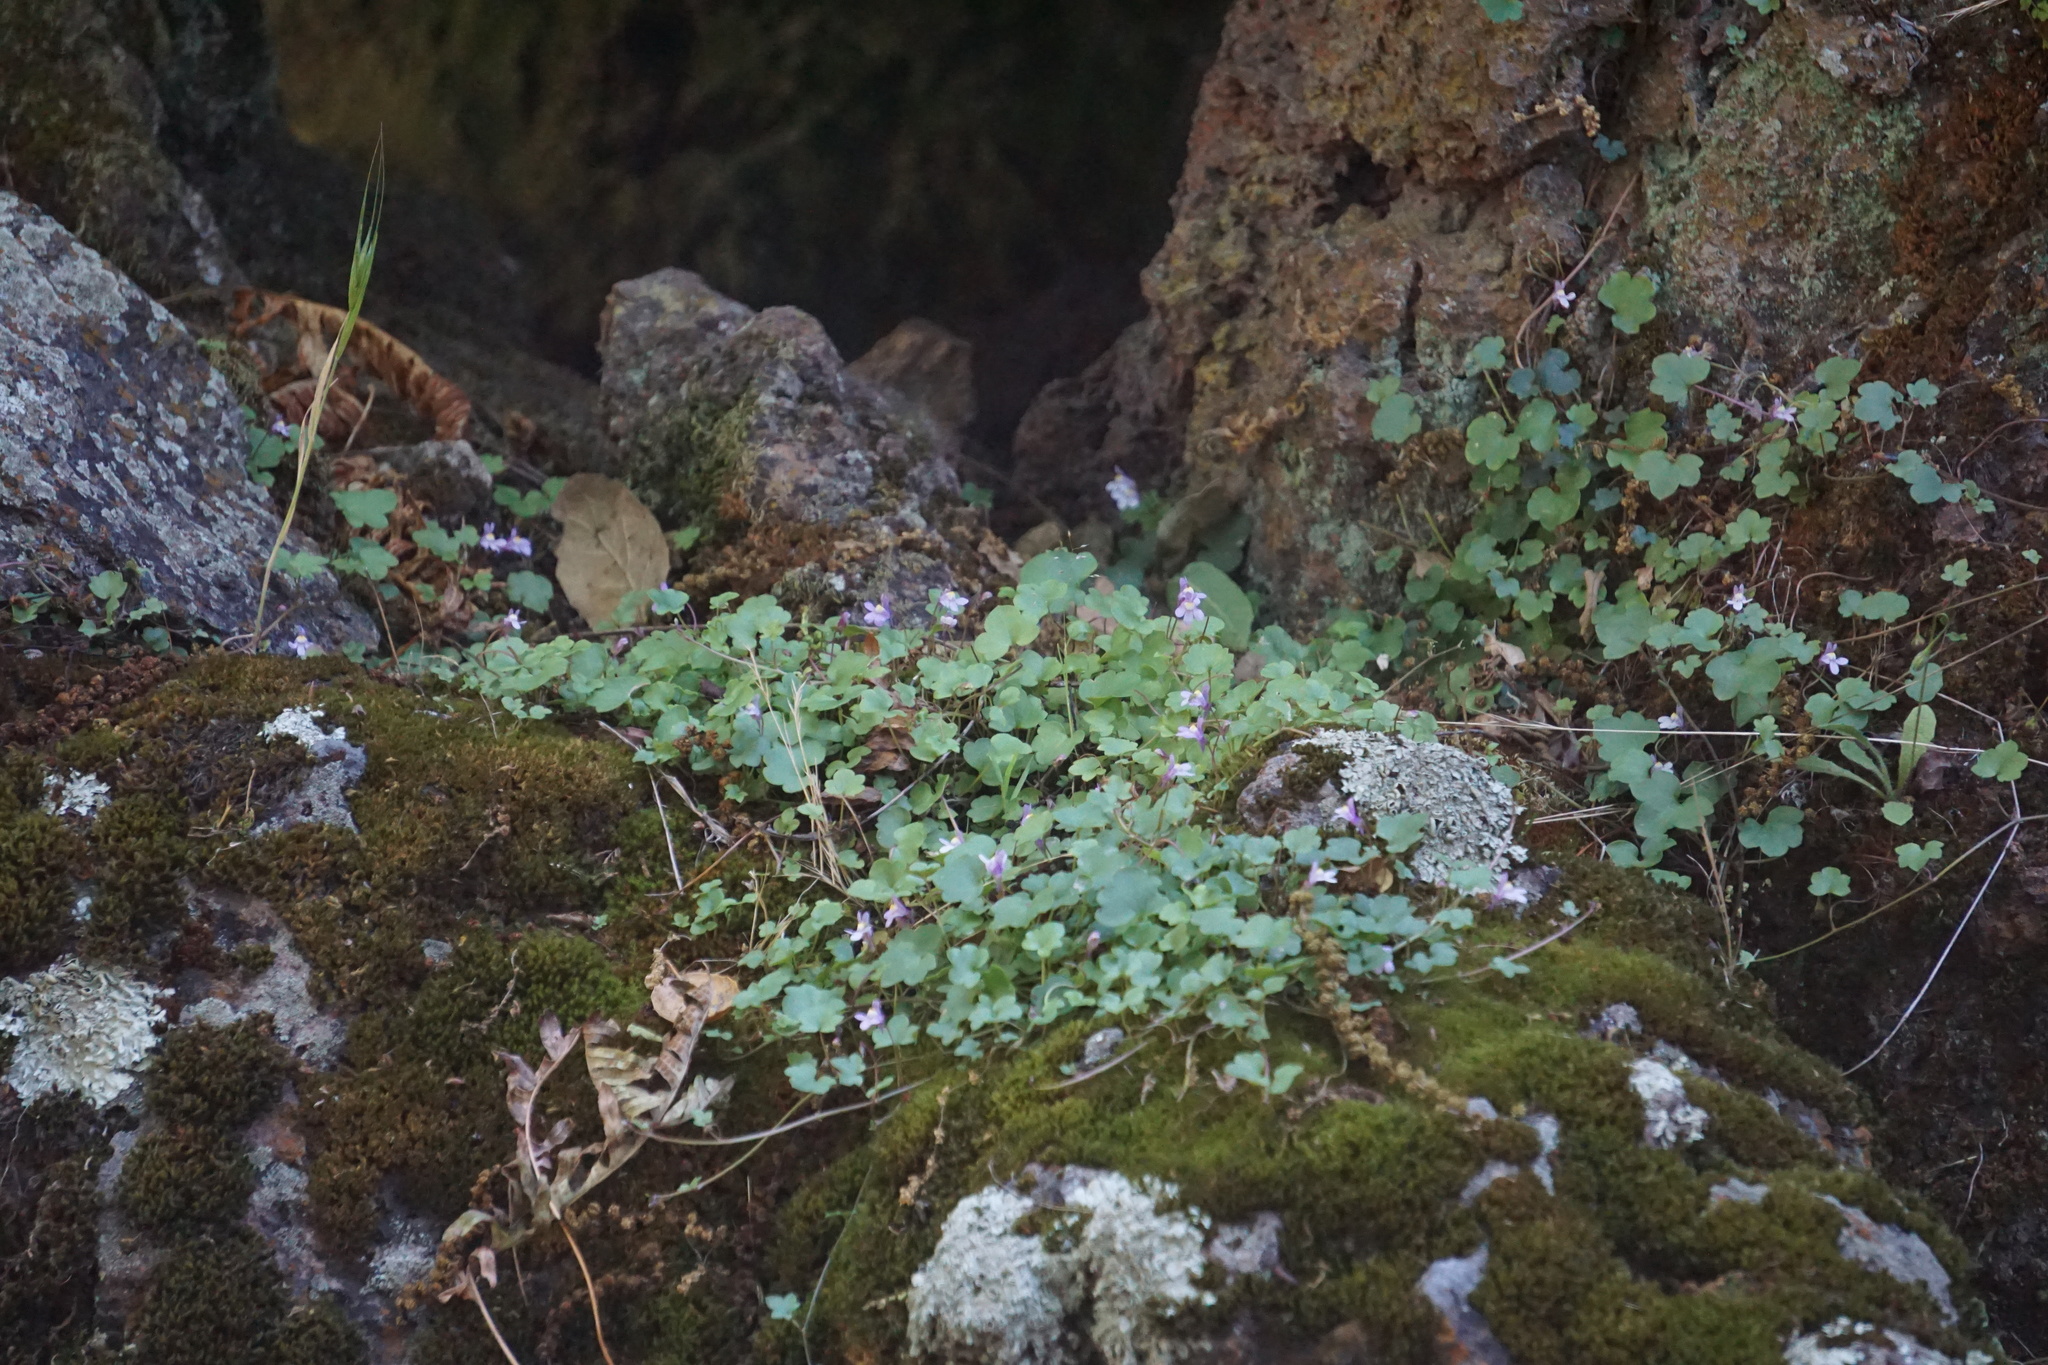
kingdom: Plantae
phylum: Tracheophyta
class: Magnoliopsida
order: Lamiales
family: Plantaginaceae
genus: Cymbalaria
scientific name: Cymbalaria muralis
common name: Ivy-leaved toadflax
